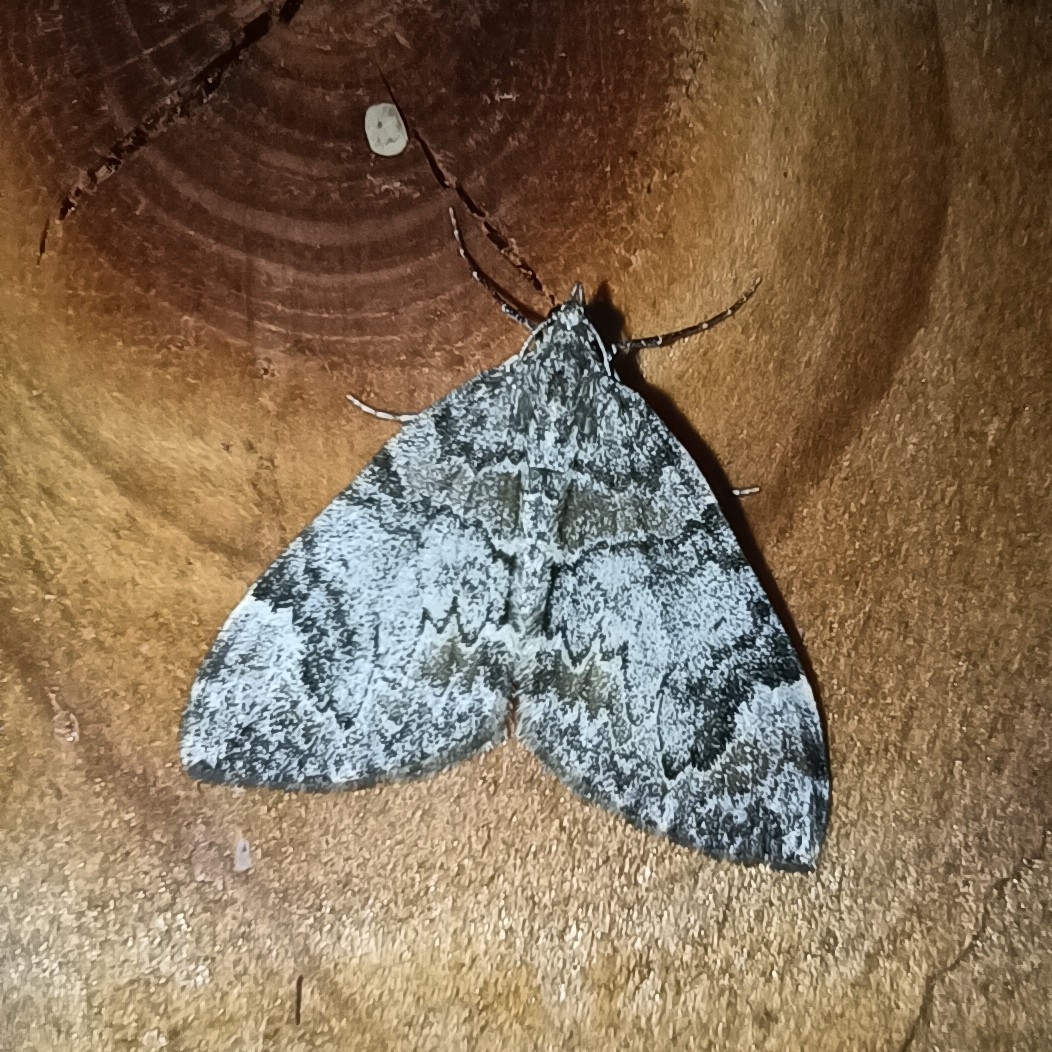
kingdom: Animalia
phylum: Arthropoda
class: Insecta
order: Lepidoptera
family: Geometridae
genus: Dysstroma
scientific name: Dysstroma citrata
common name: Dark marbled carpet
